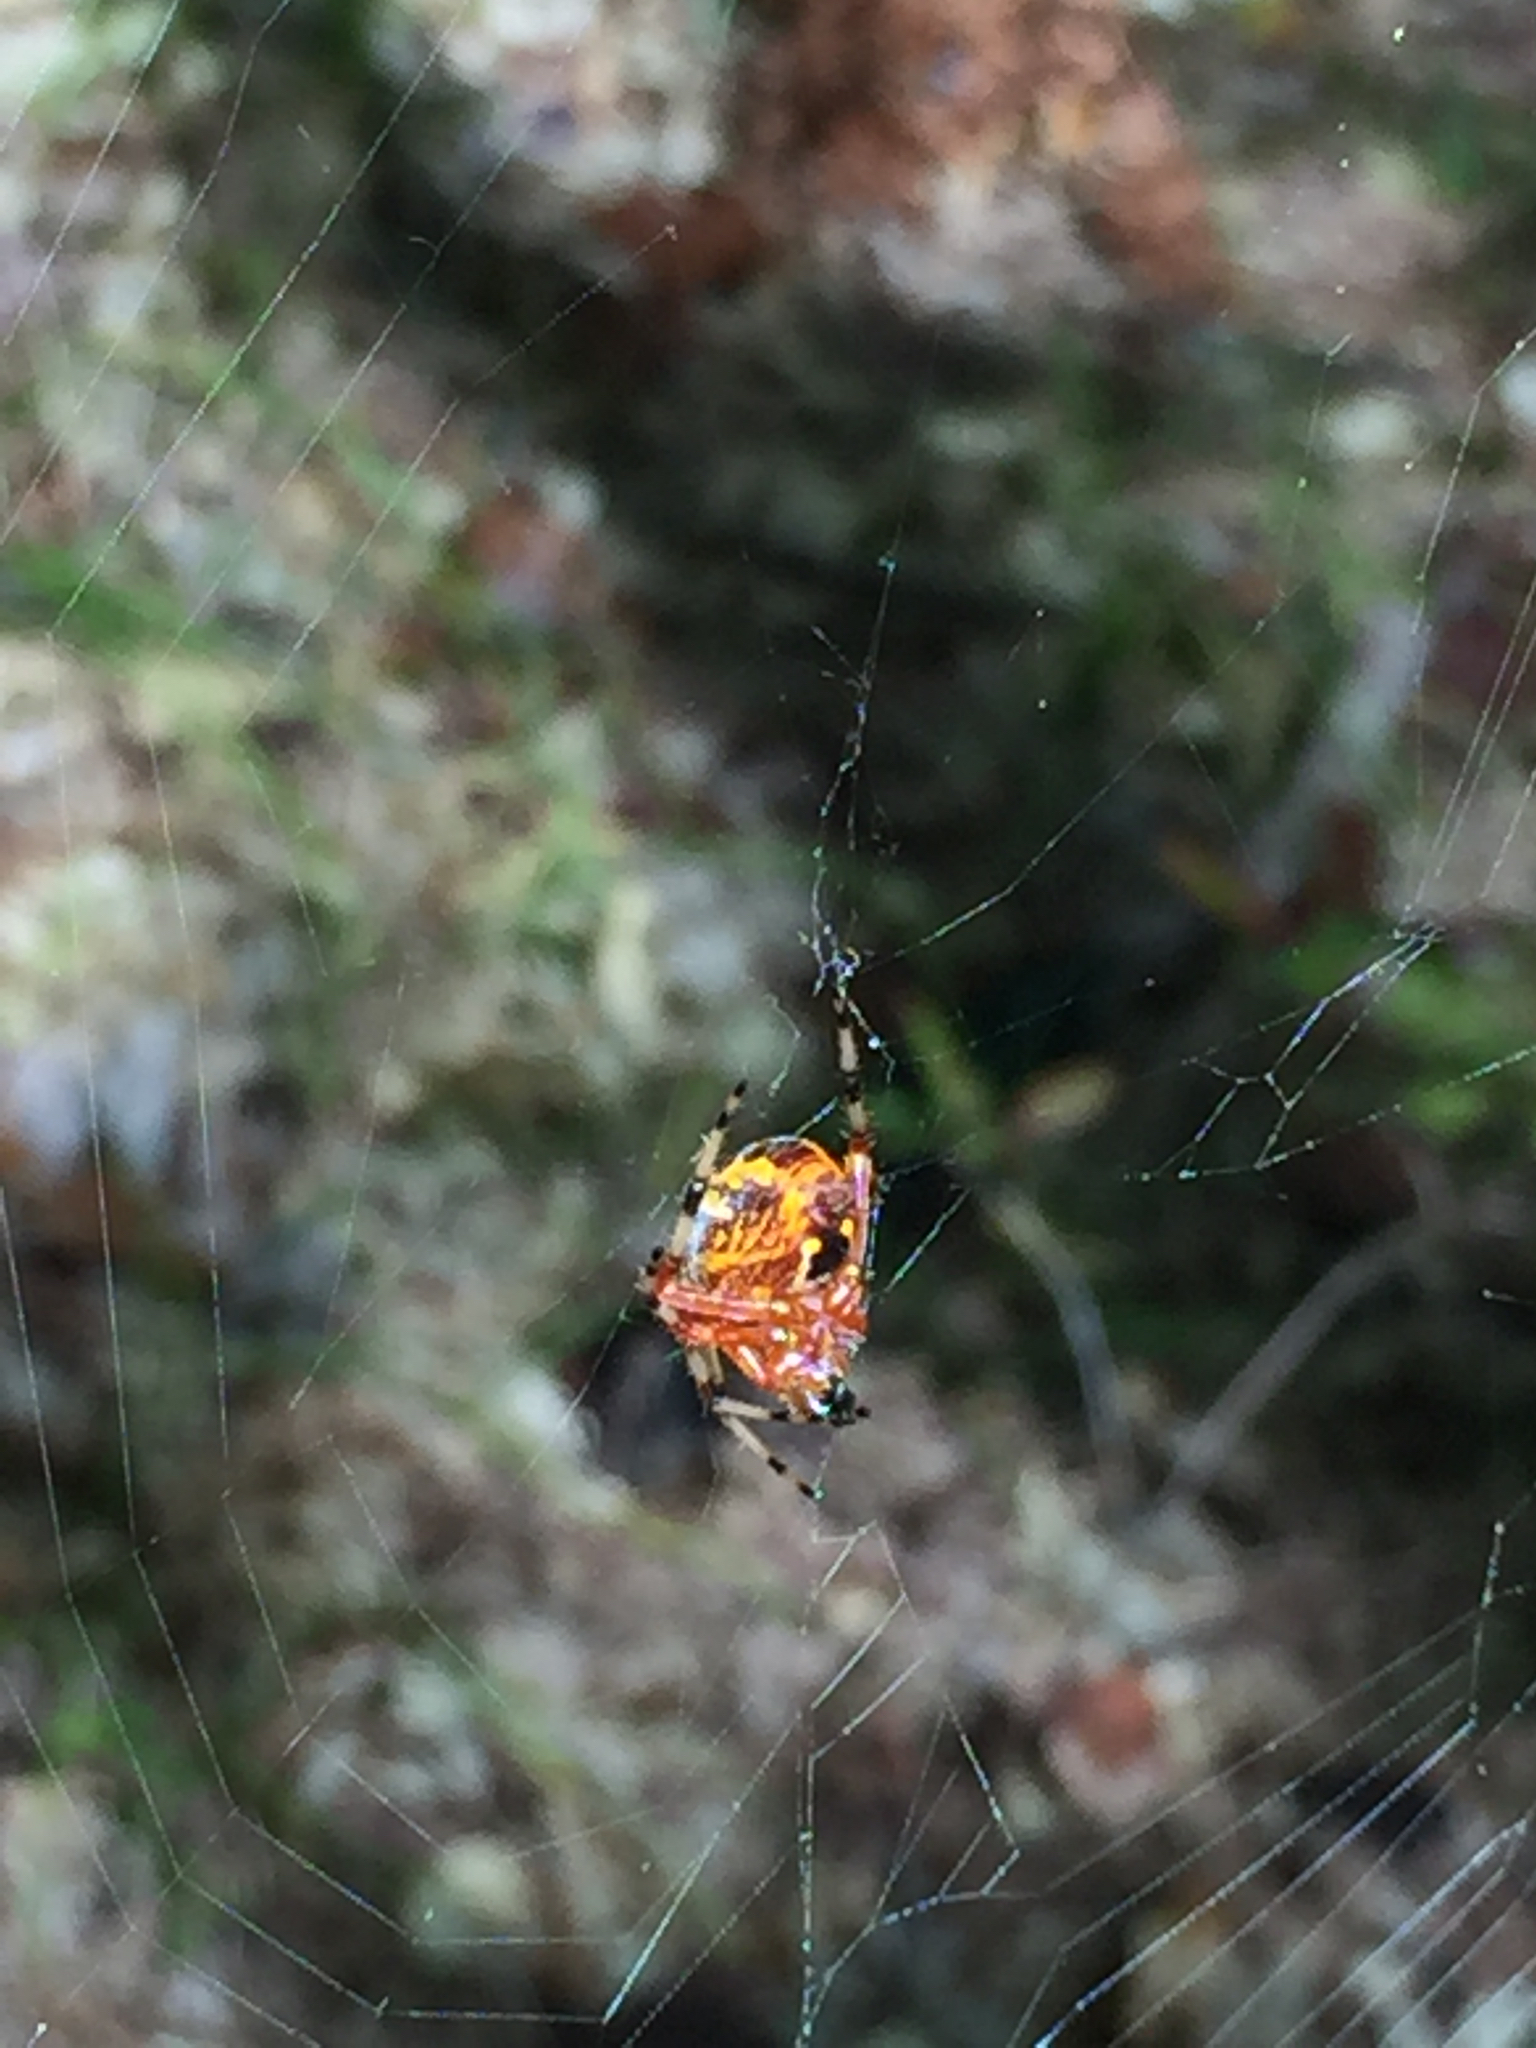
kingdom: Animalia
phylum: Arthropoda
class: Arachnida
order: Araneae
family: Araneidae
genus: Araneus
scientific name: Araneus marmoreus
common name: Marbled orbweaver
